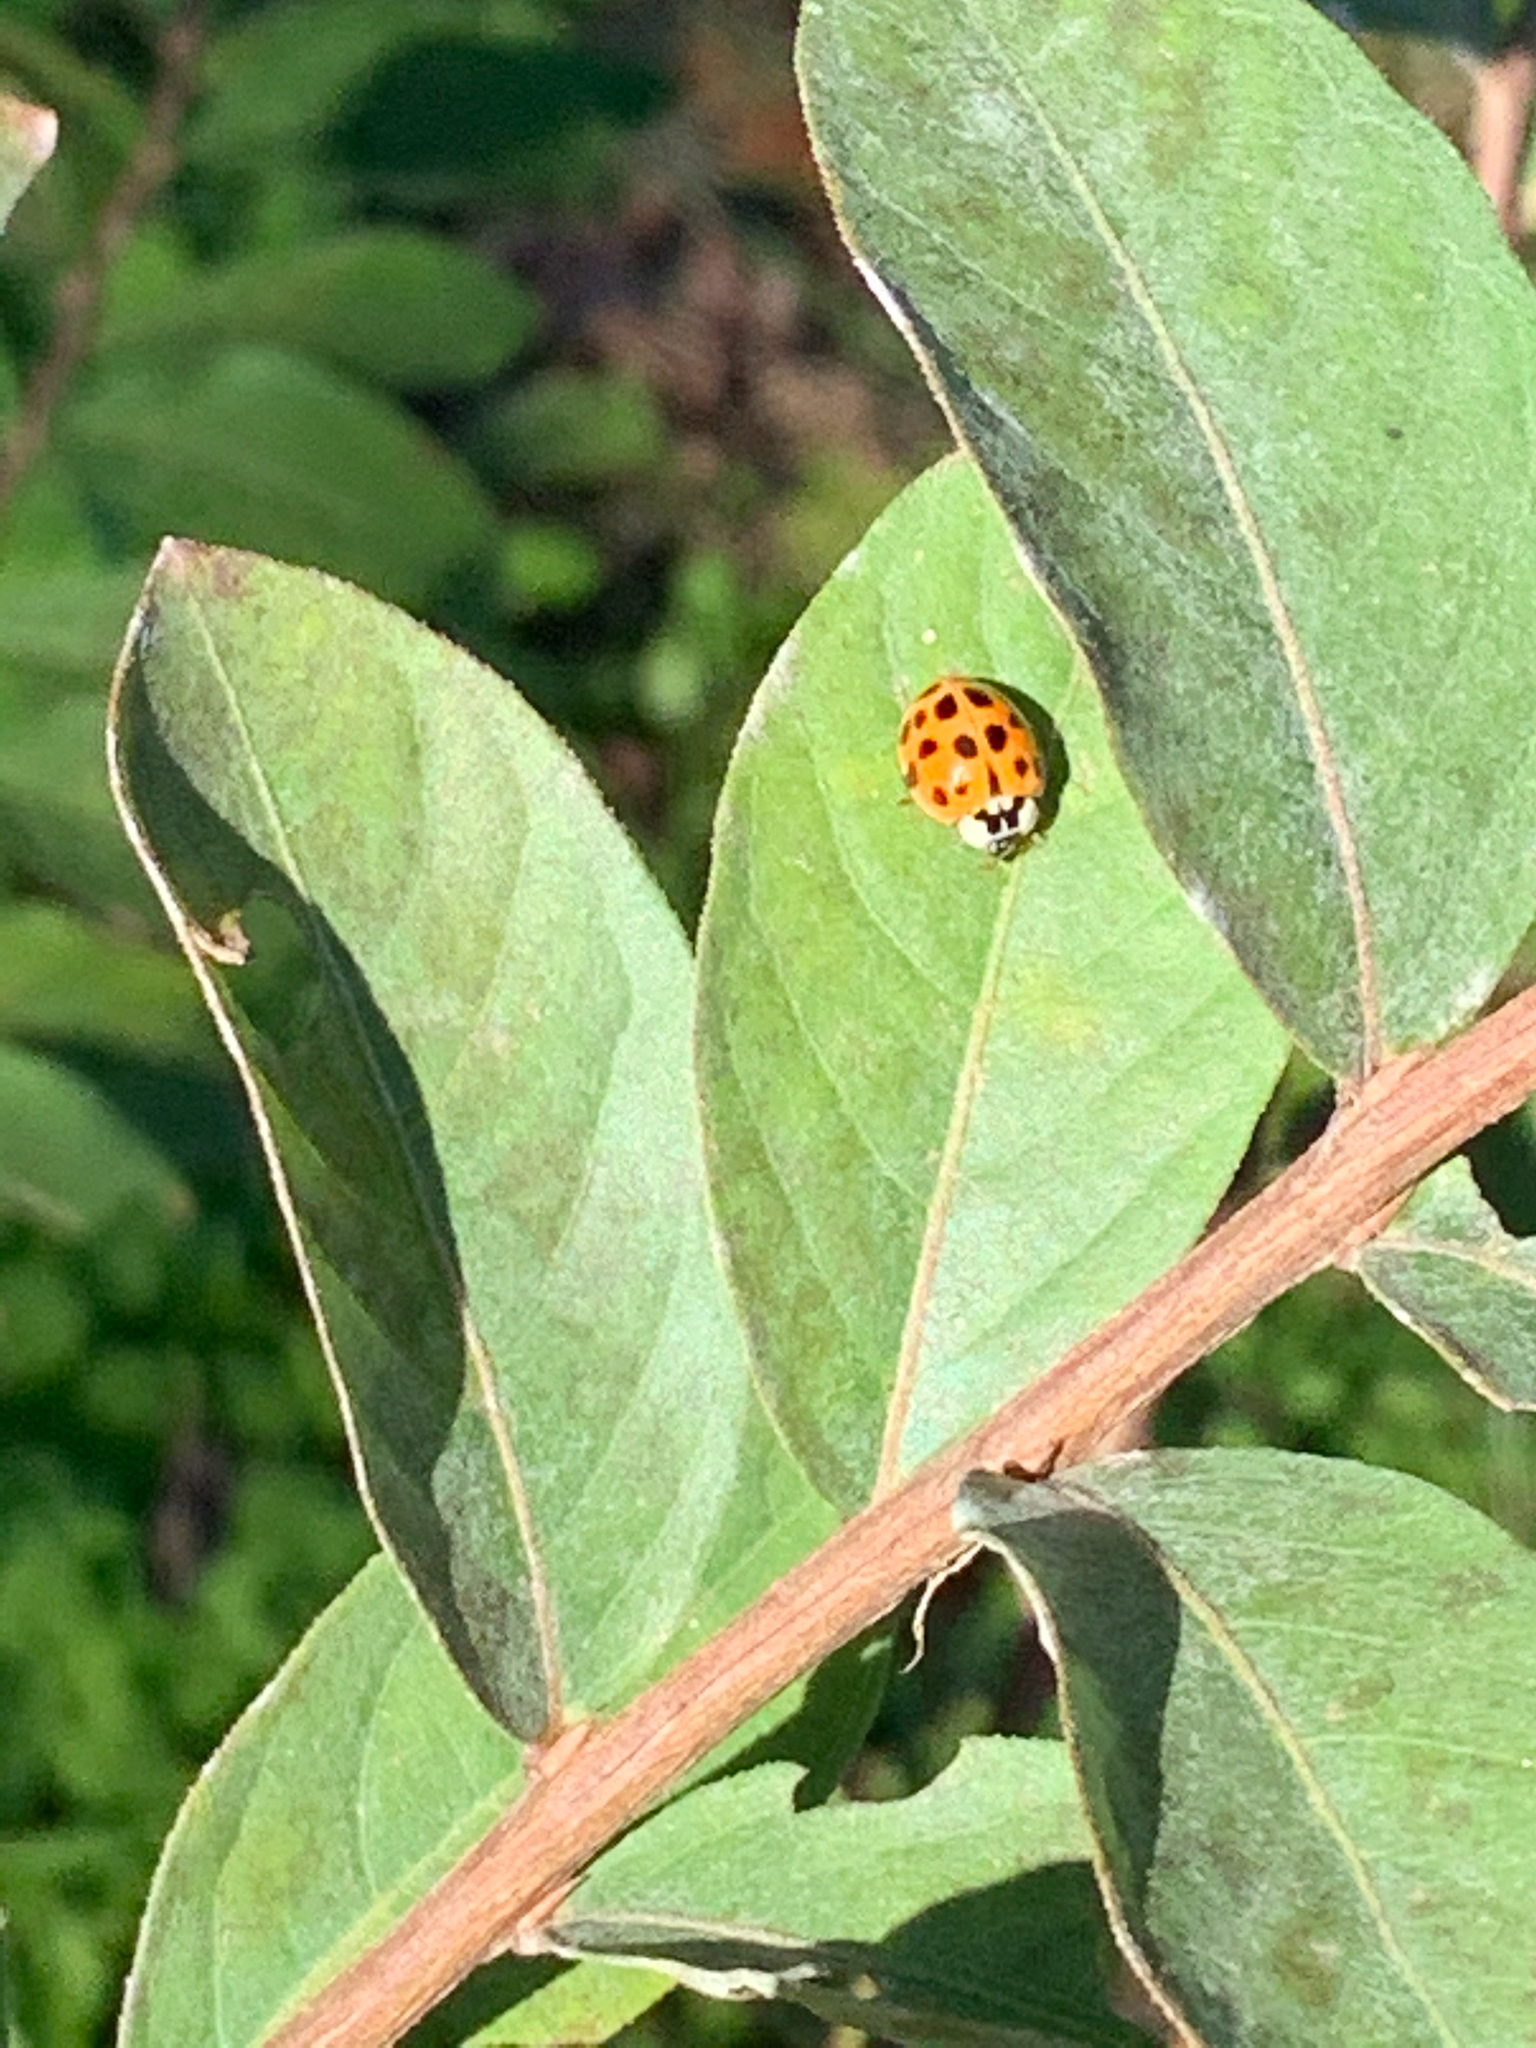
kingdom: Animalia
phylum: Arthropoda
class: Insecta
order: Coleoptera
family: Coccinellidae
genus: Harmonia
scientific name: Harmonia axyridis
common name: Harlequin ladybird
